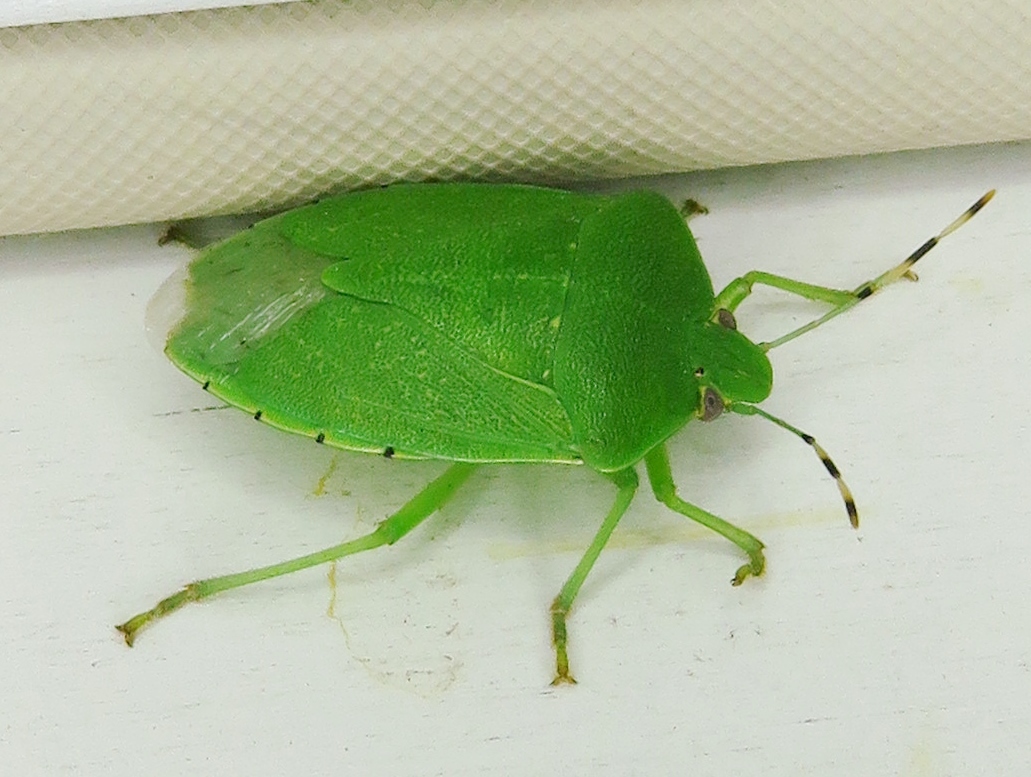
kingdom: Animalia
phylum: Arthropoda
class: Insecta
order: Hemiptera
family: Pentatomidae
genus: Chinavia
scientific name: Chinavia hilaris
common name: Green stink bug
